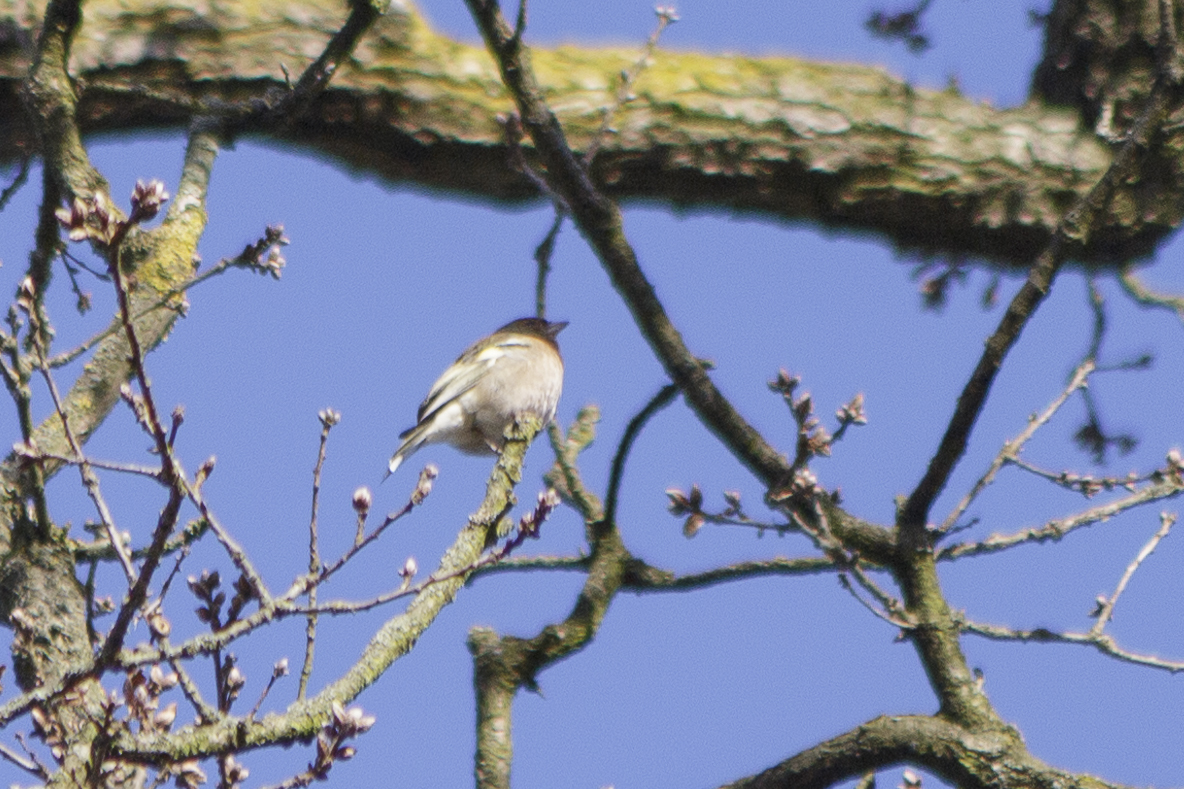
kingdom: Animalia
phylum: Chordata
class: Aves
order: Passeriformes
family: Fringillidae
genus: Fringilla
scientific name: Fringilla coelebs
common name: Common chaffinch
